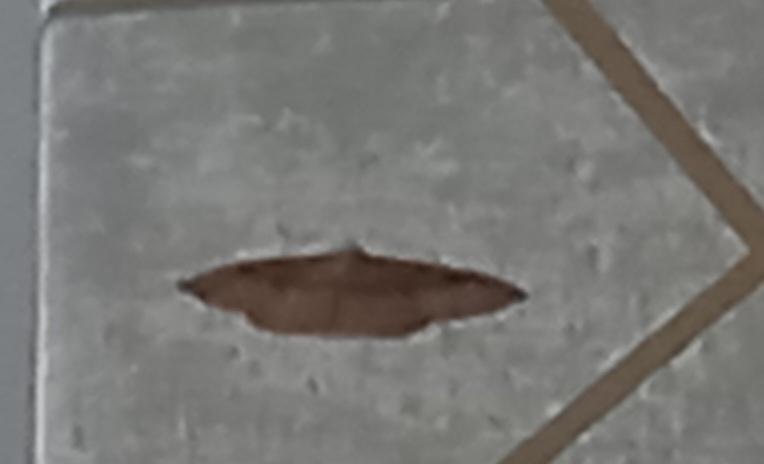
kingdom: Animalia
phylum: Arthropoda
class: Insecta
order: Lepidoptera
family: Geometridae
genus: Idaea
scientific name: Idaea degeneraria
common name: Portland ribbon wave
